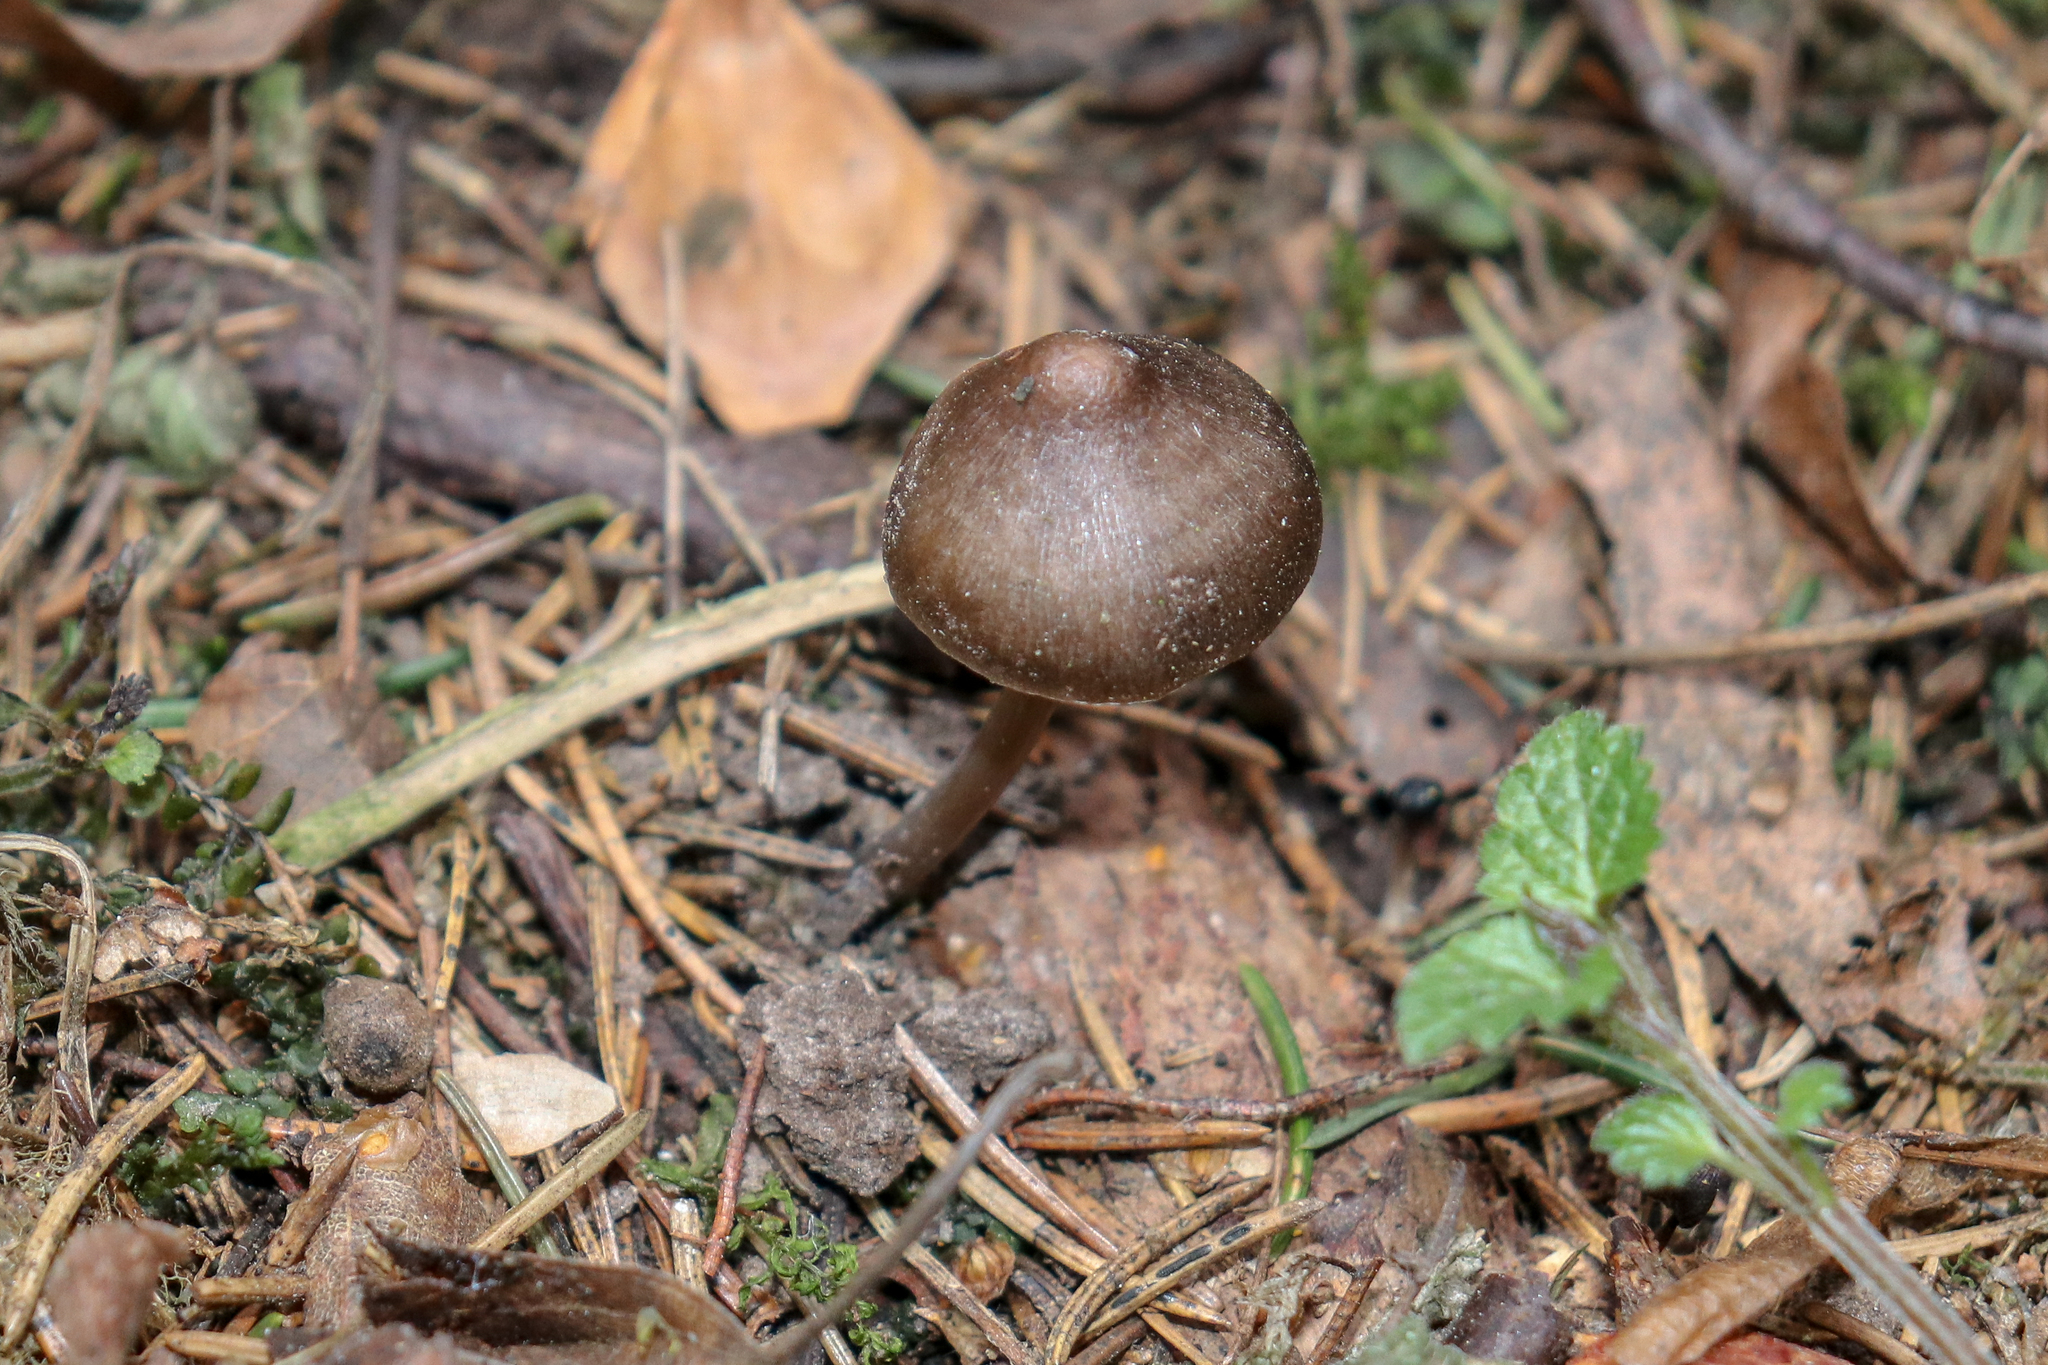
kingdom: Fungi
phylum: Basidiomycota
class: Agaricomycetes
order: Agaricales
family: Mycenaceae
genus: Mycena
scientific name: Mycena plumipes
